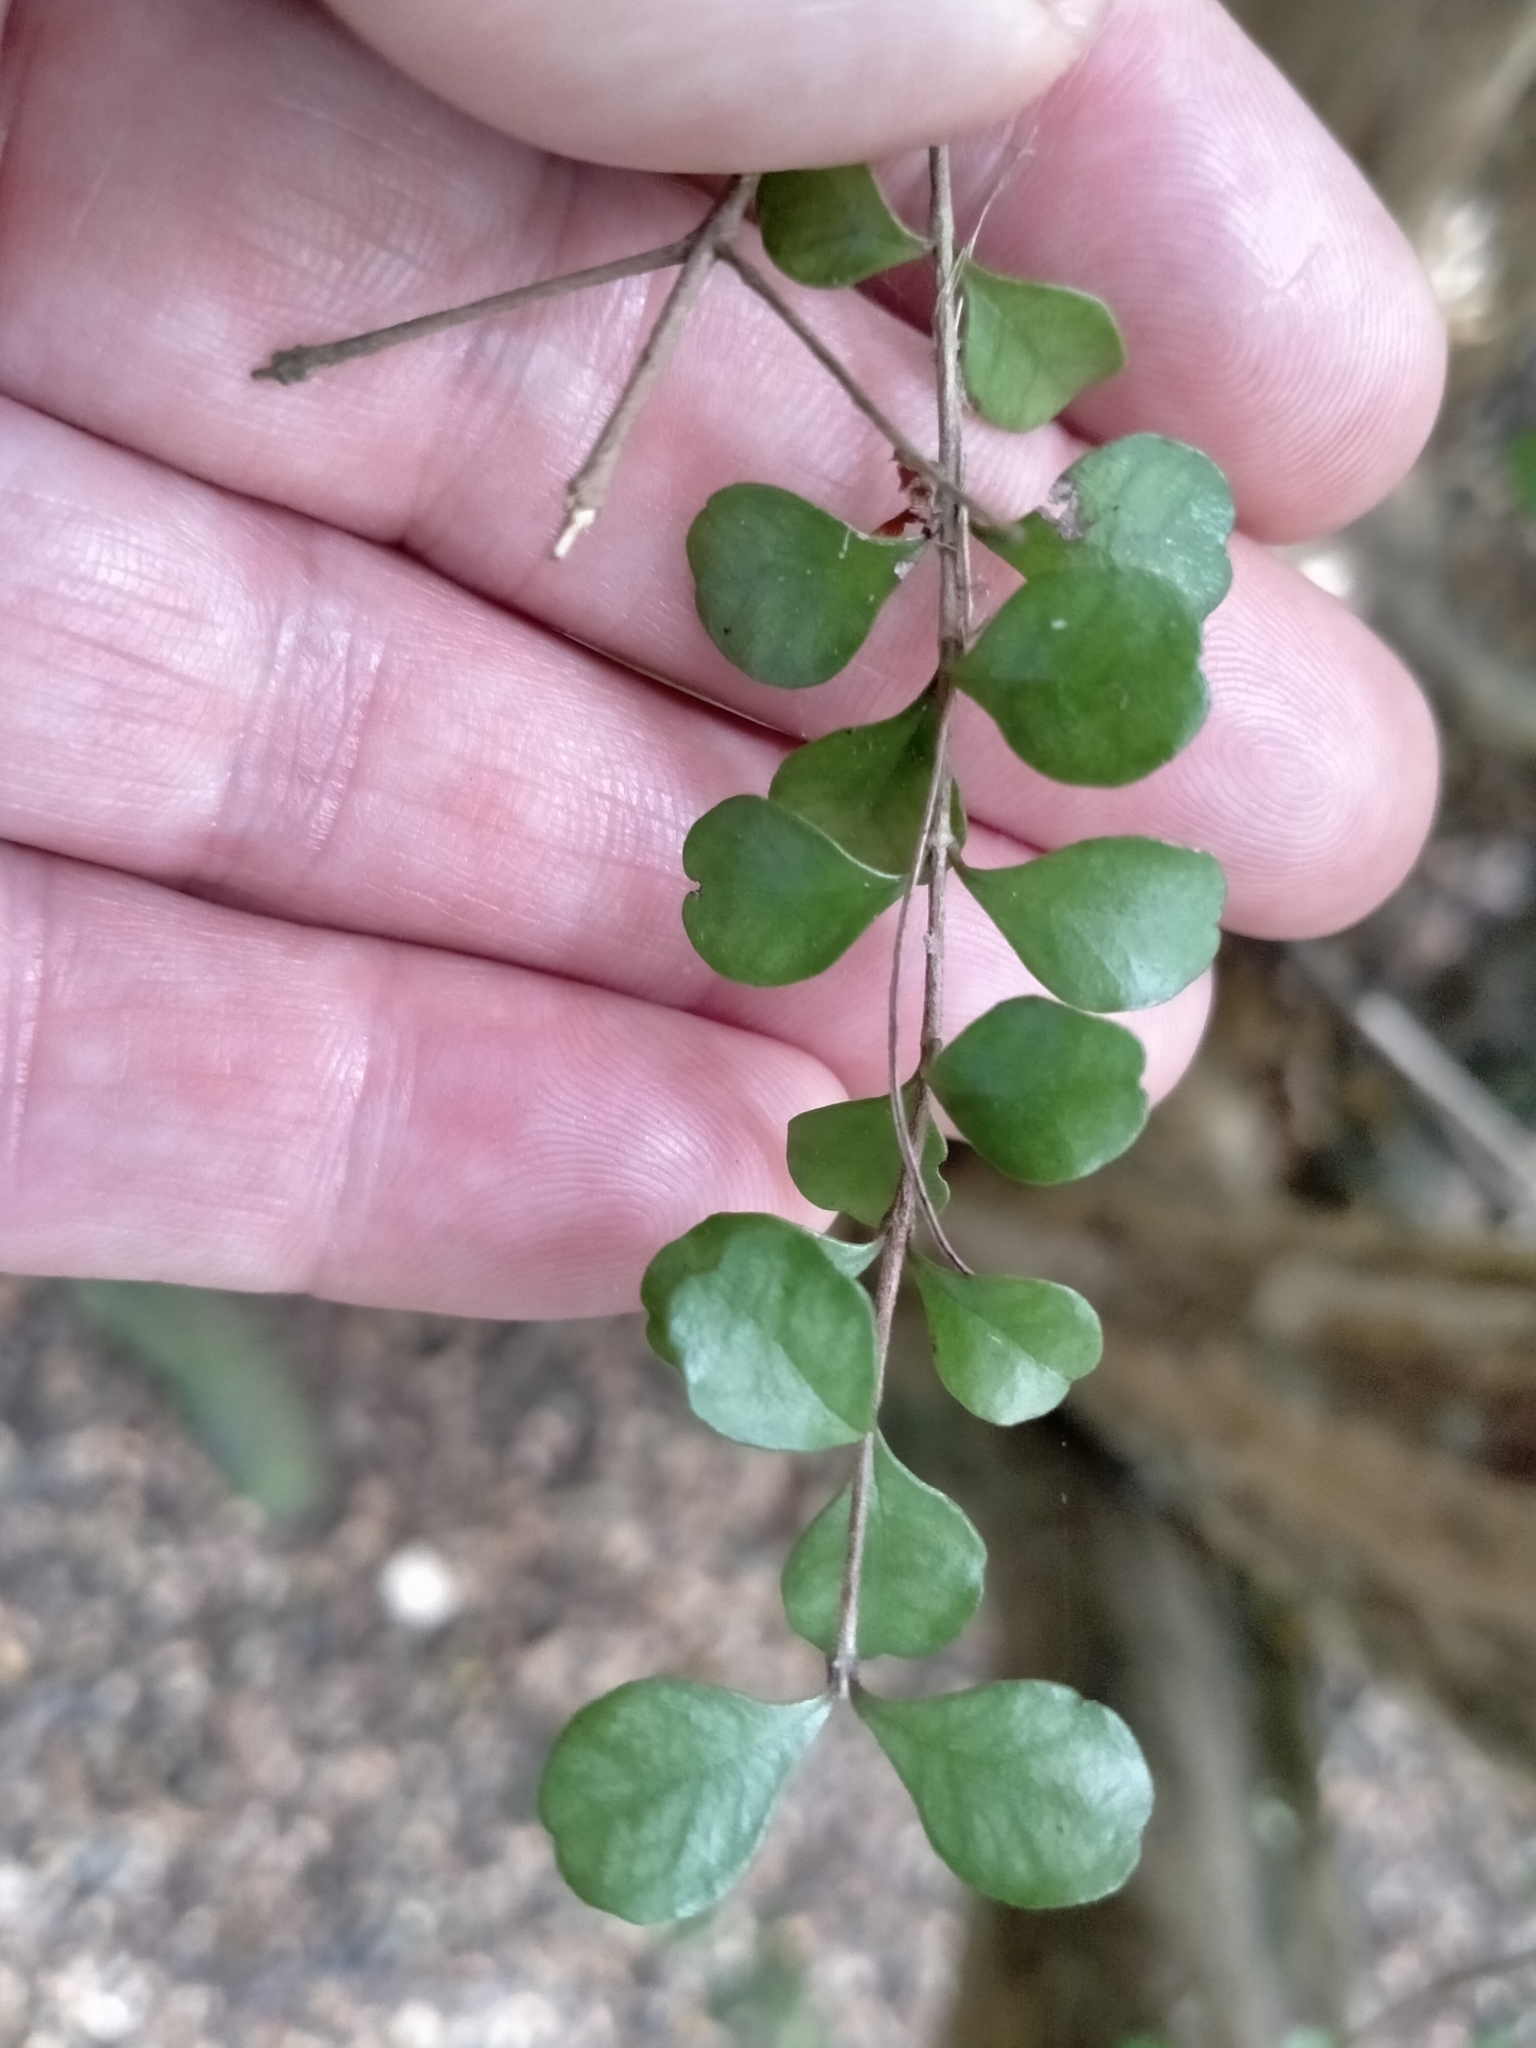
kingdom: Plantae
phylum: Tracheophyta
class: Magnoliopsida
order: Myrtales
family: Myrtaceae
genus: Lophomyrtus
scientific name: Lophomyrtus obcordata
